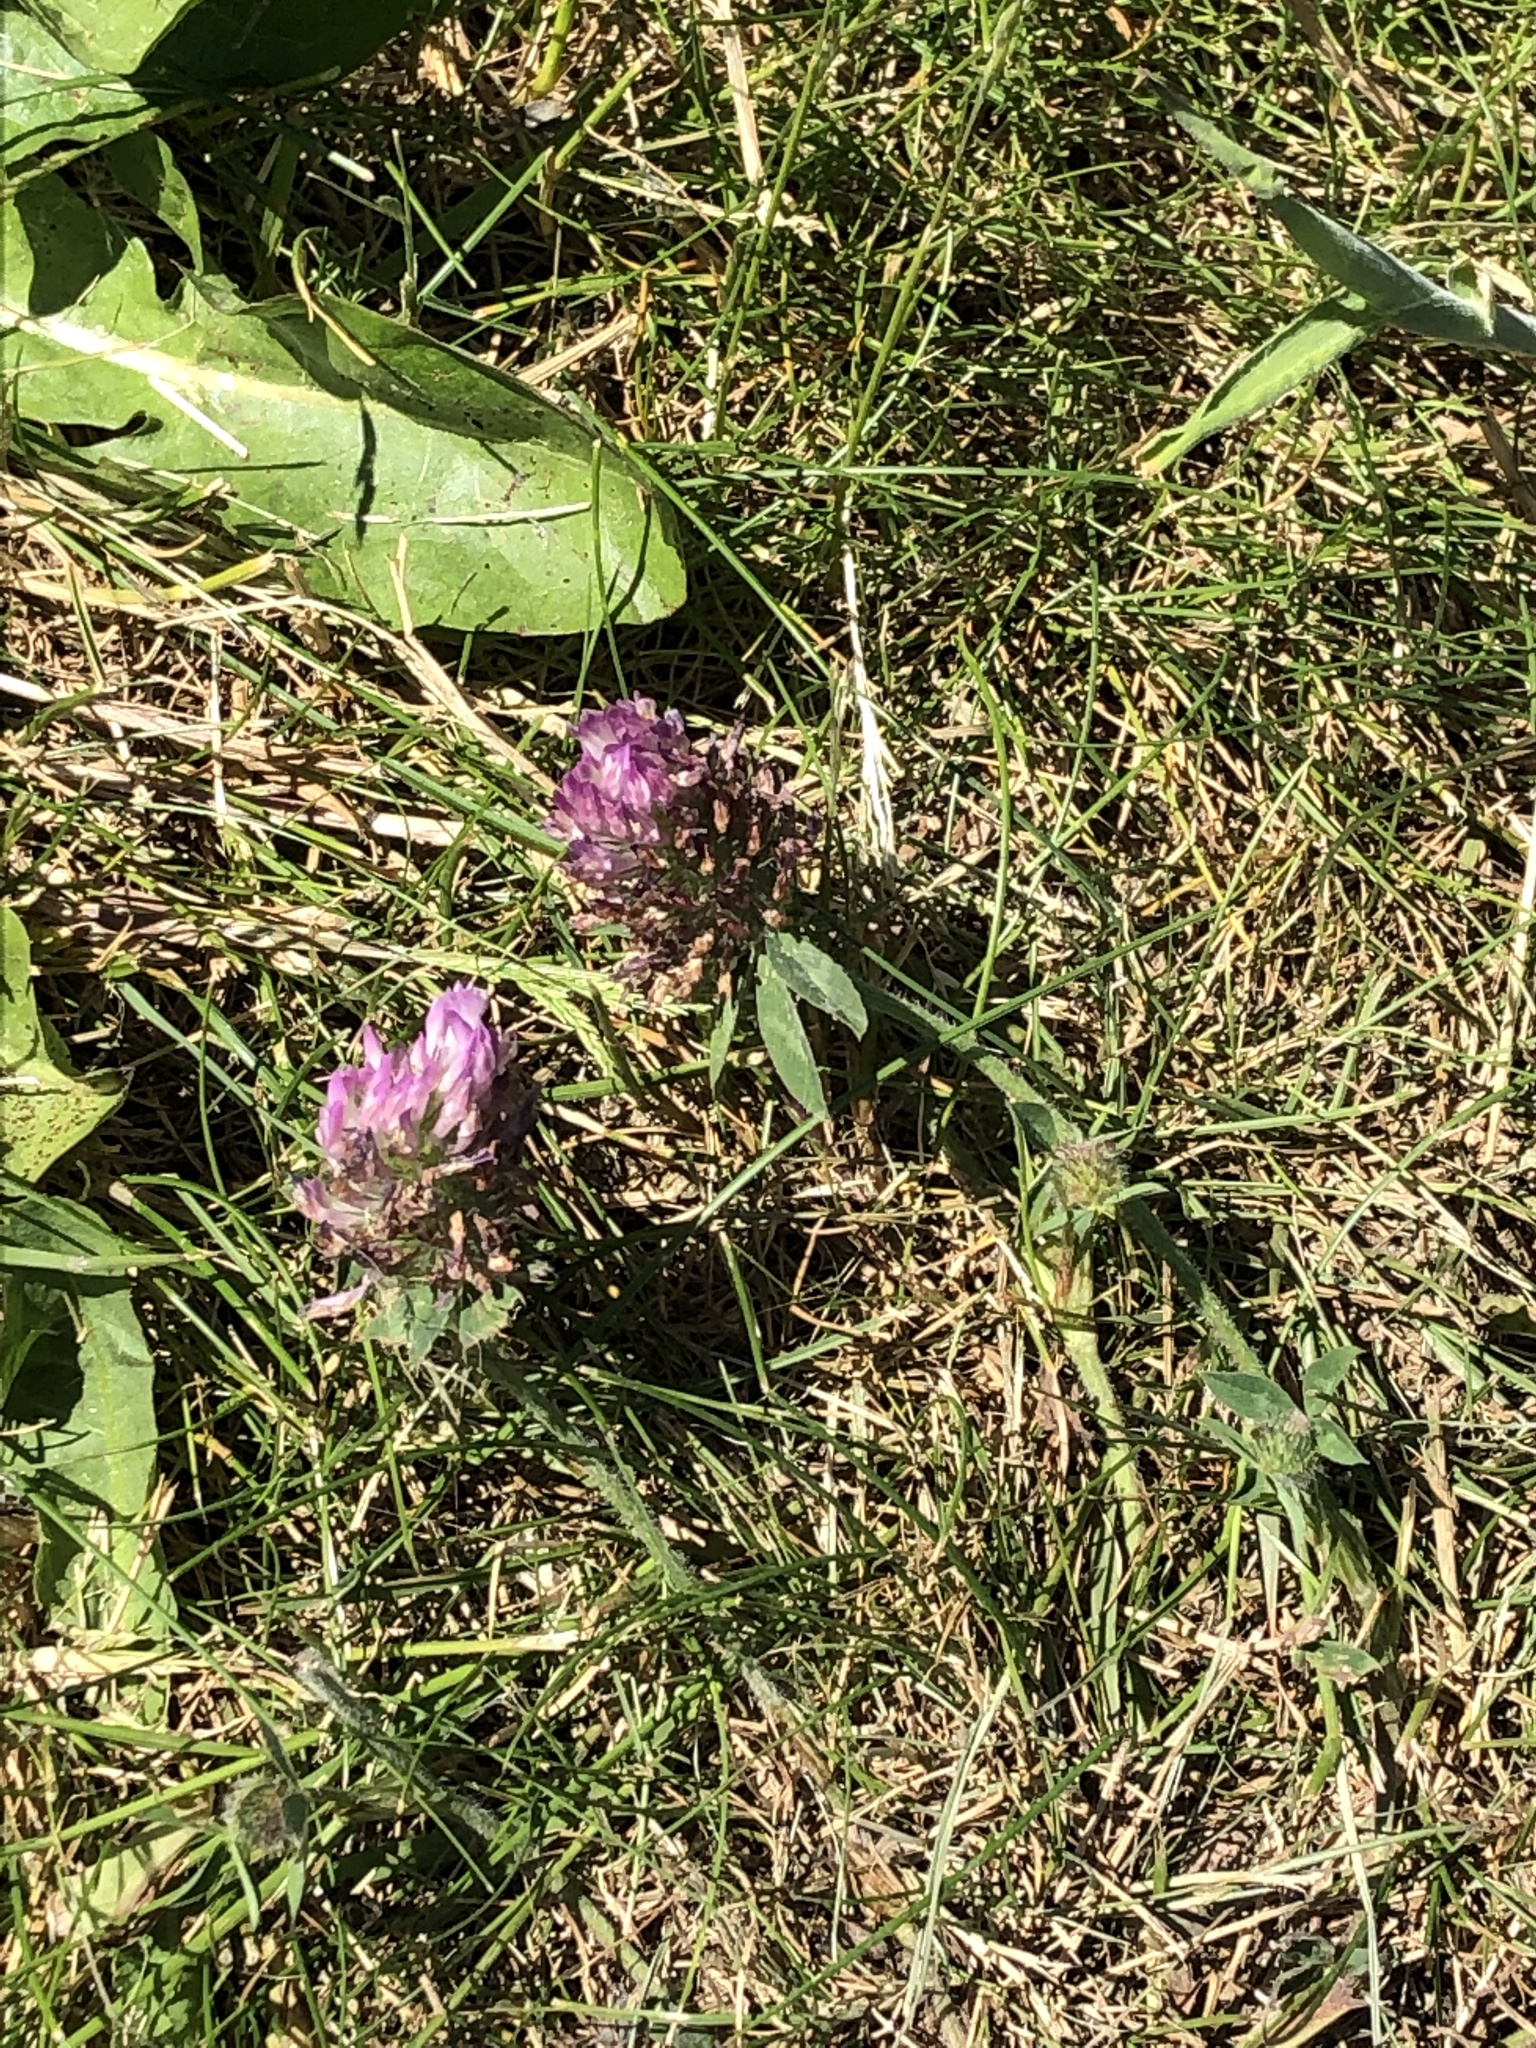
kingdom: Plantae
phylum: Tracheophyta
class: Magnoliopsida
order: Fabales
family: Fabaceae
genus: Trifolium
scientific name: Trifolium pratense
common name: Red clover
